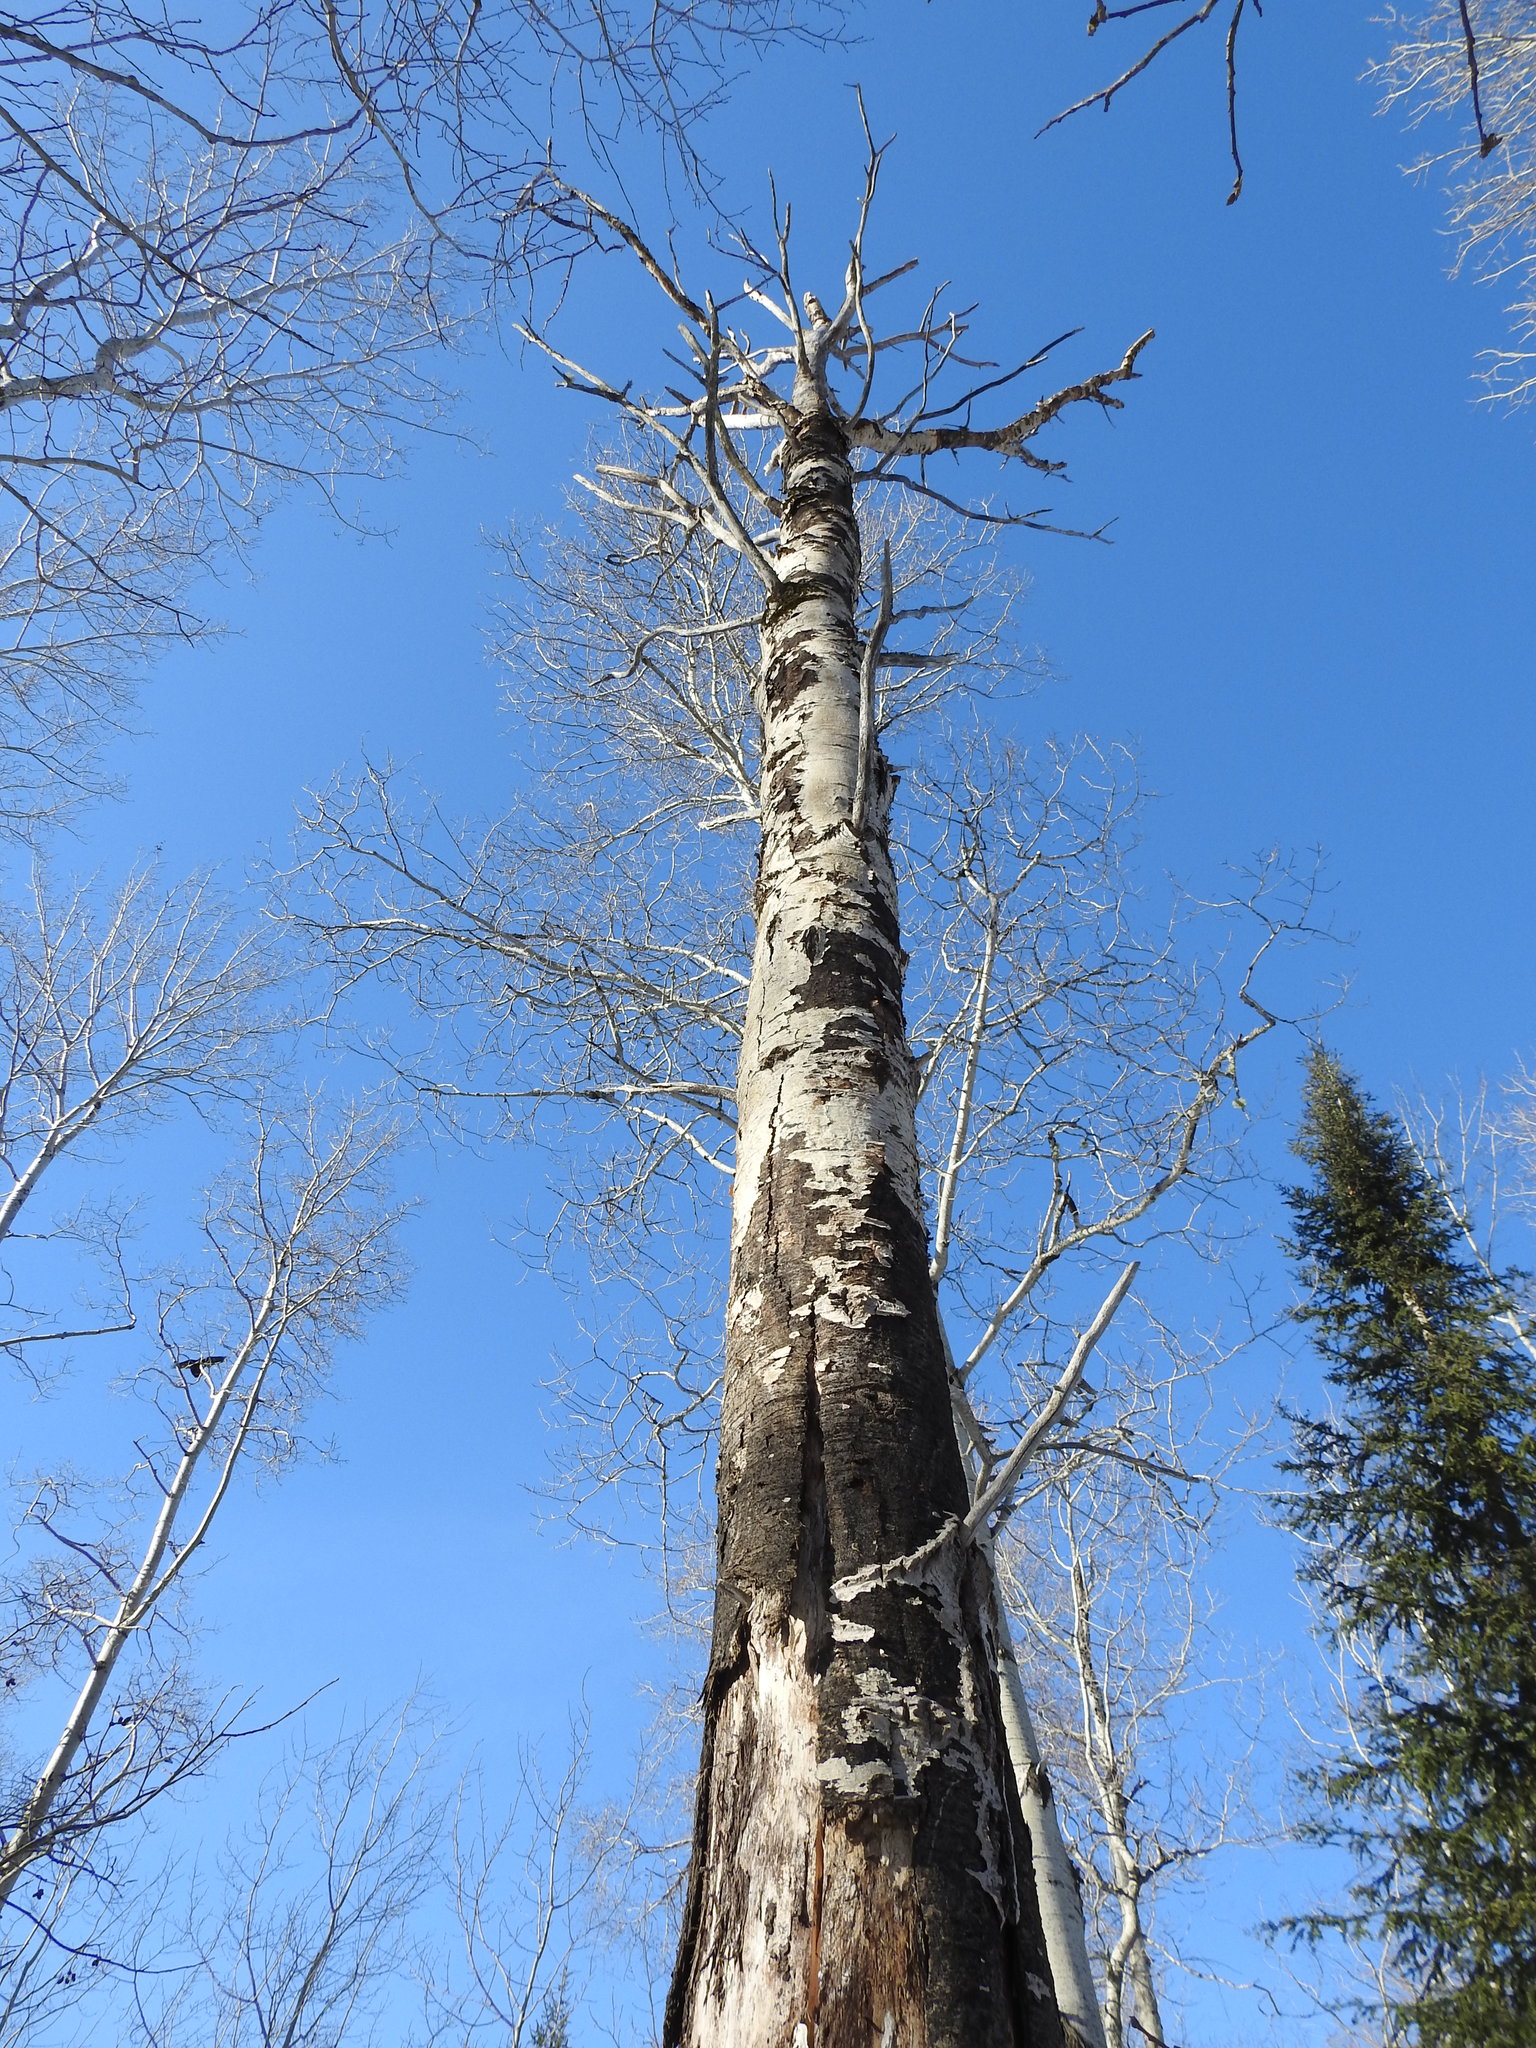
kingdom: Plantae
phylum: Tracheophyta
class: Magnoliopsida
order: Malpighiales
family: Salicaceae
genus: Populus
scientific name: Populus tremuloides
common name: Quaking aspen
